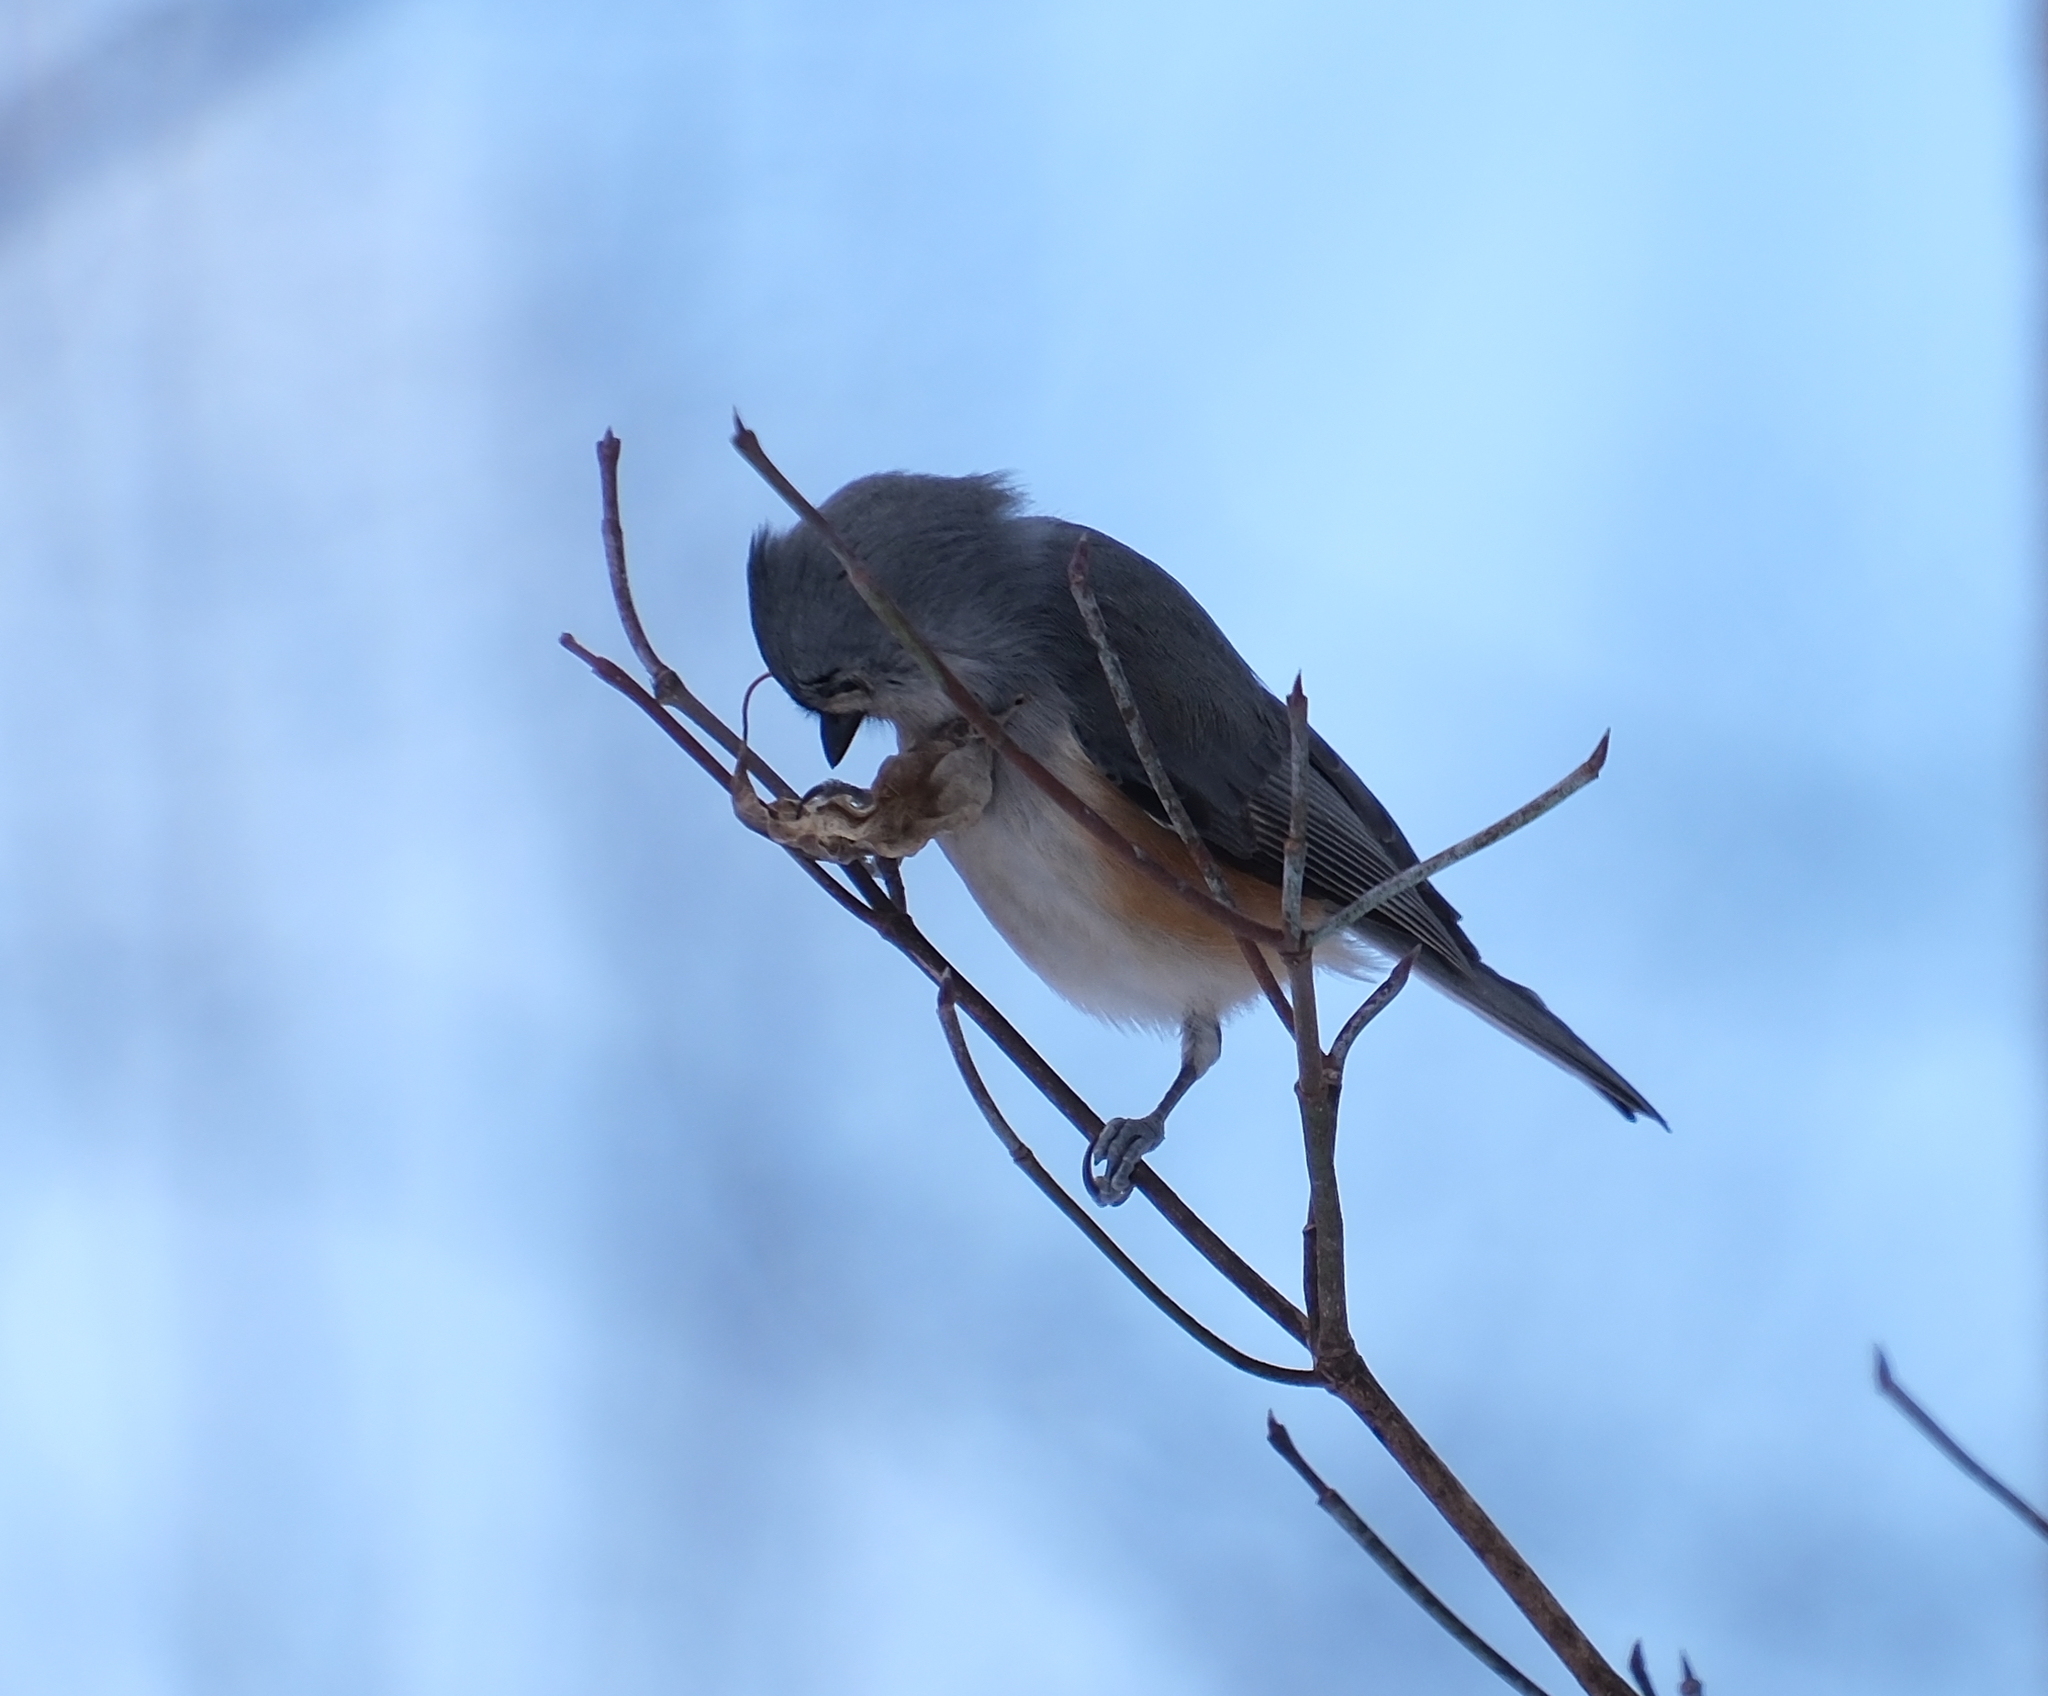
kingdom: Animalia
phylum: Chordata
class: Aves
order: Passeriformes
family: Paridae
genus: Baeolophus
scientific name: Baeolophus bicolor
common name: Tufted titmouse
